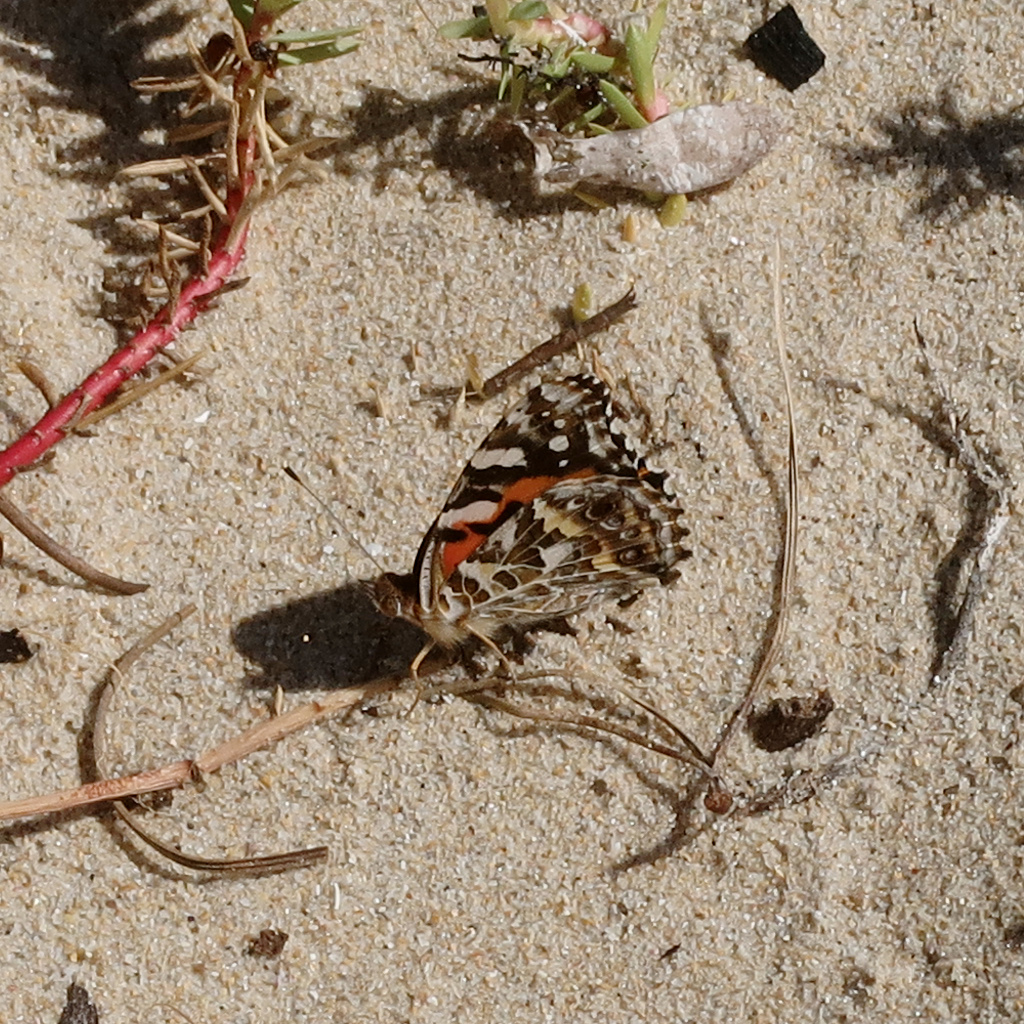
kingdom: Animalia
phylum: Arthropoda
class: Insecta
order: Lepidoptera
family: Nymphalidae
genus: Vanessa
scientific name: Vanessa kershawi
